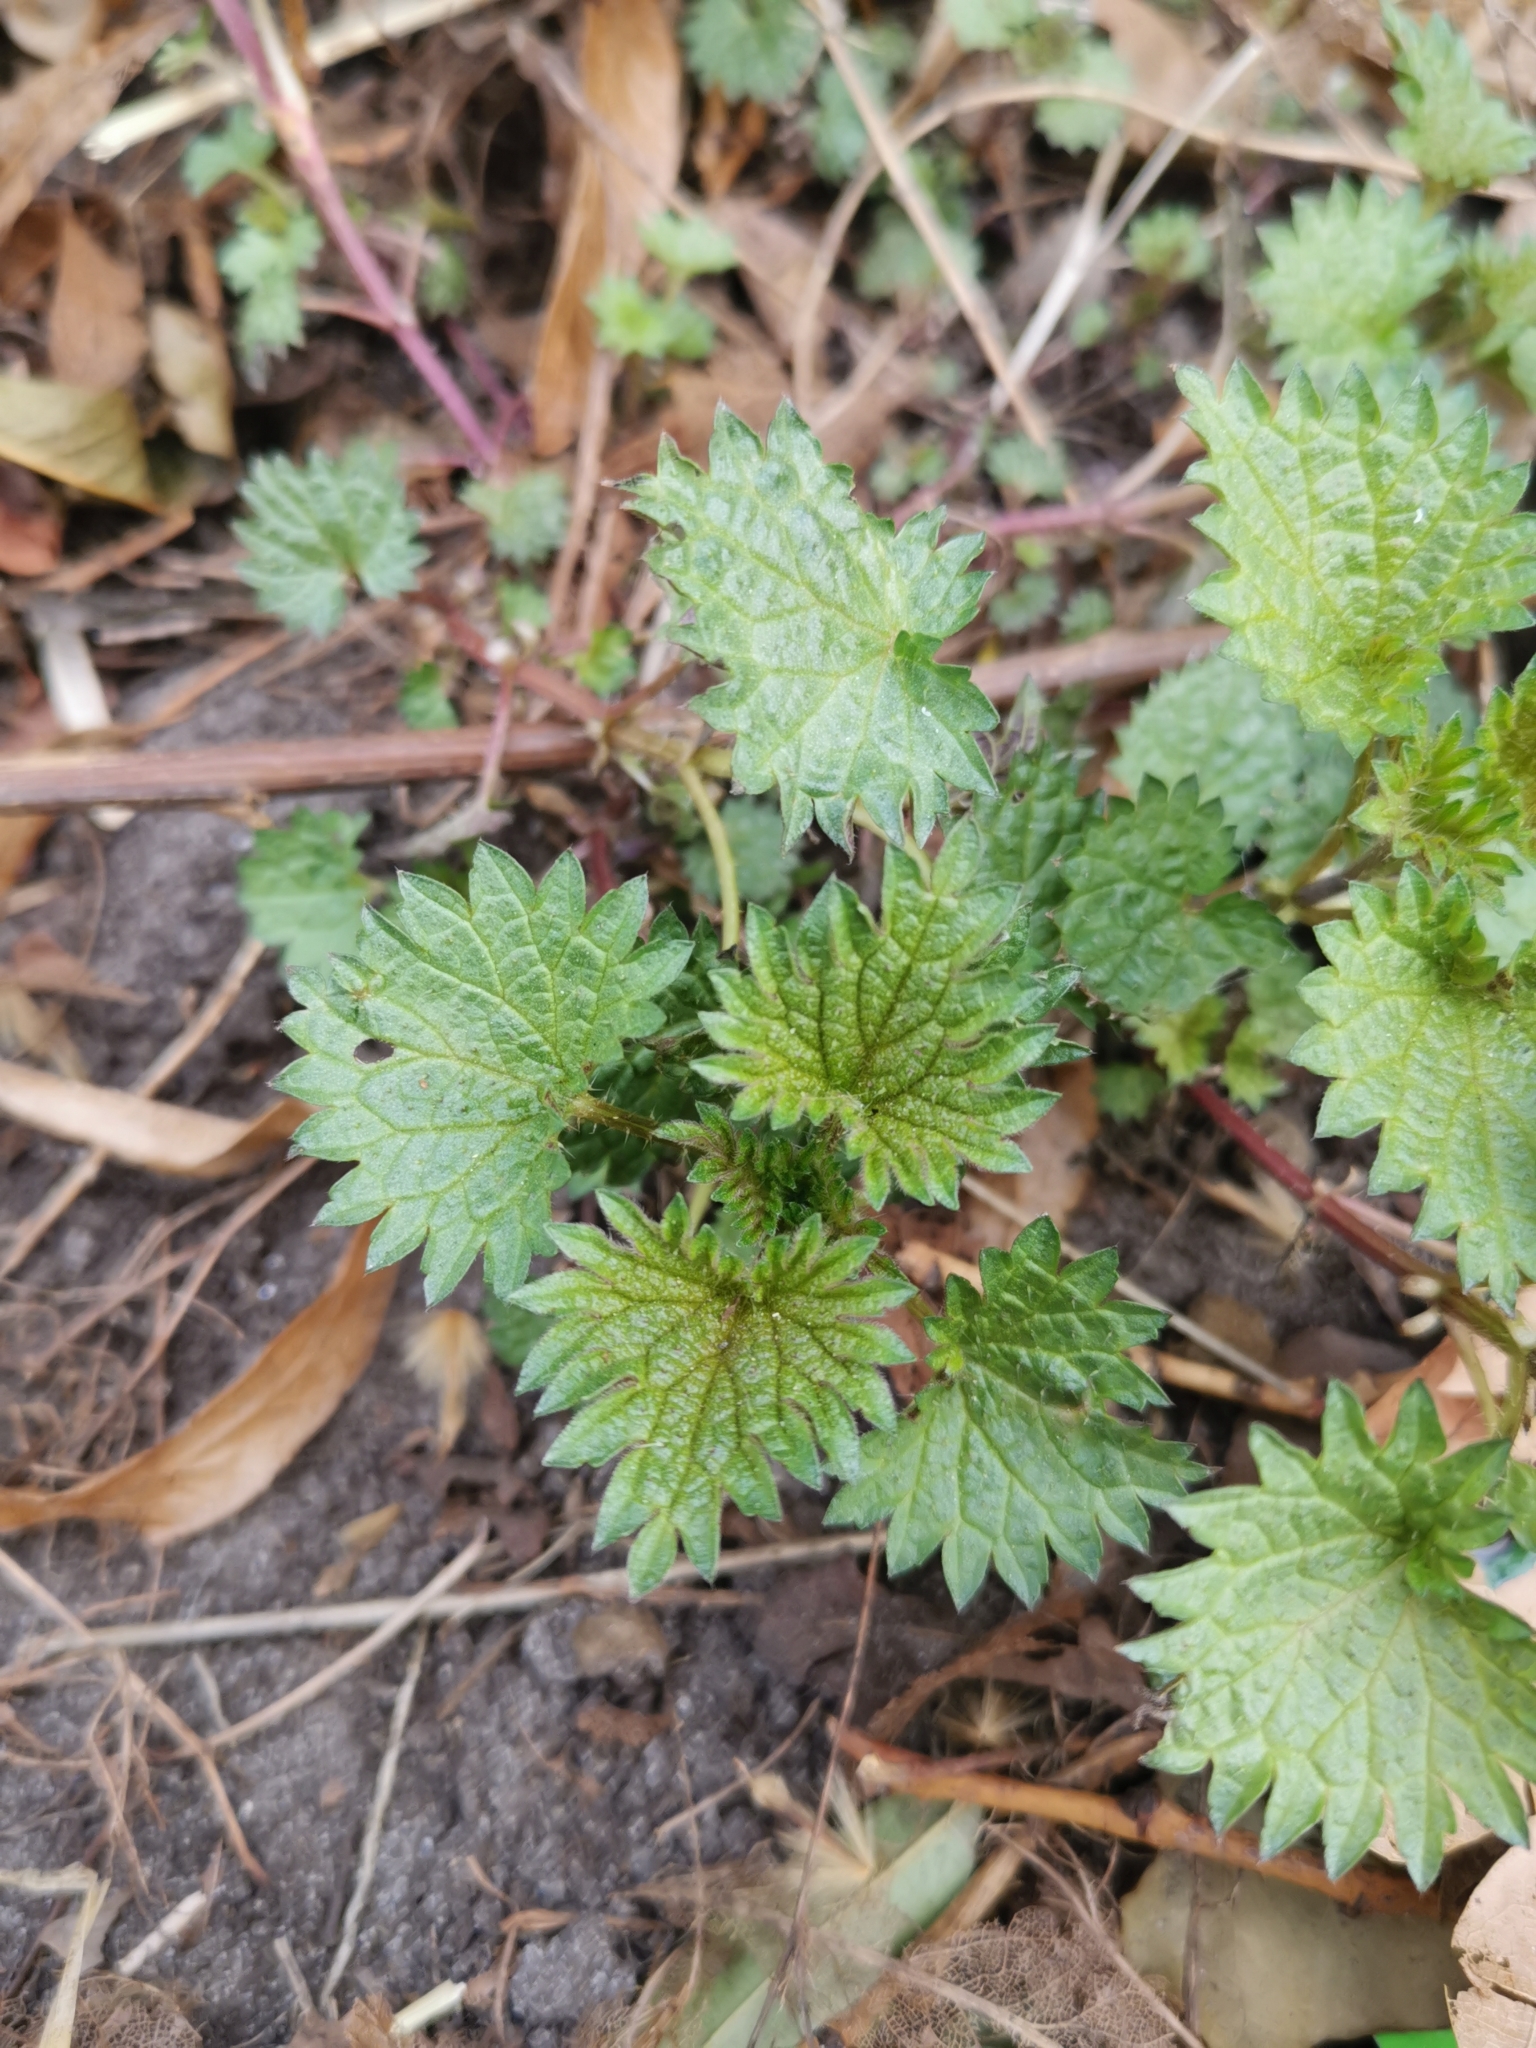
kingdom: Plantae
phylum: Tracheophyta
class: Magnoliopsida
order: Rosales
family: Urticaceae
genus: Urtica
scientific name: Urtica dioica
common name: Common nettle
